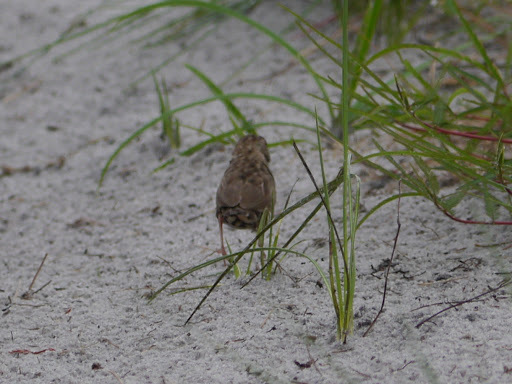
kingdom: Animalia
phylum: Chordata
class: Aves
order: Passeriformes
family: Estrildidae
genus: Ortygospiza
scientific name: Ortygospiza atricollis
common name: Quailfinch
